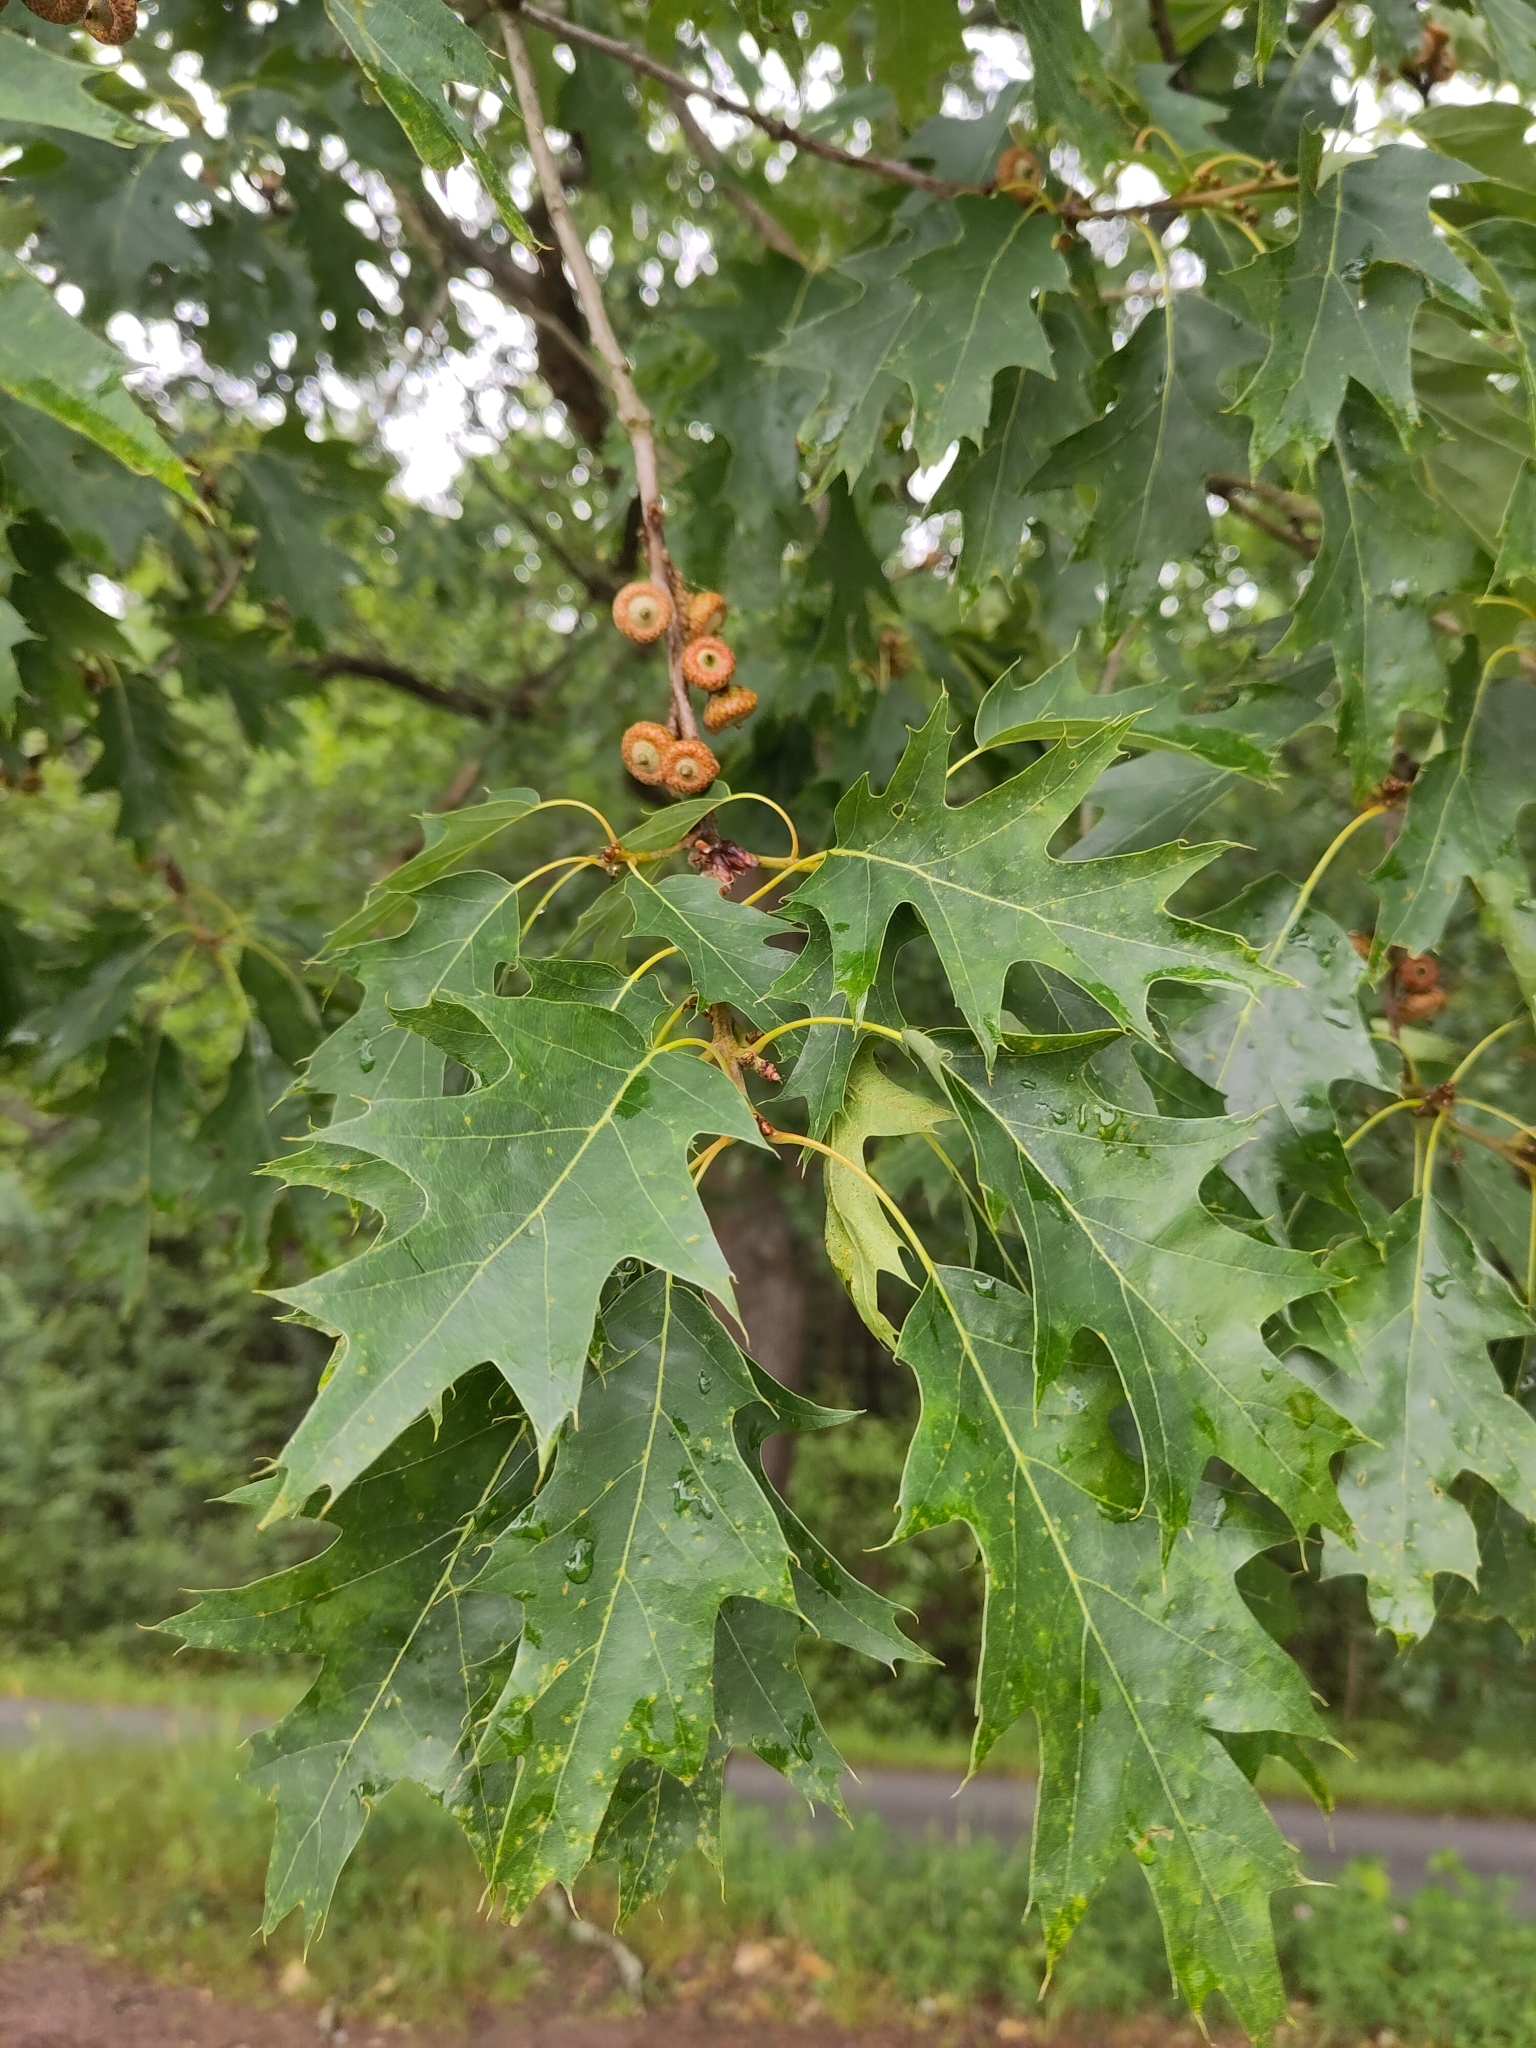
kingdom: Plantae
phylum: Tracheophyta
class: Magnoliopsida
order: Fagales
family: Fagaceae
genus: Quercus
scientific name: Quercus rubra
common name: Red oak
